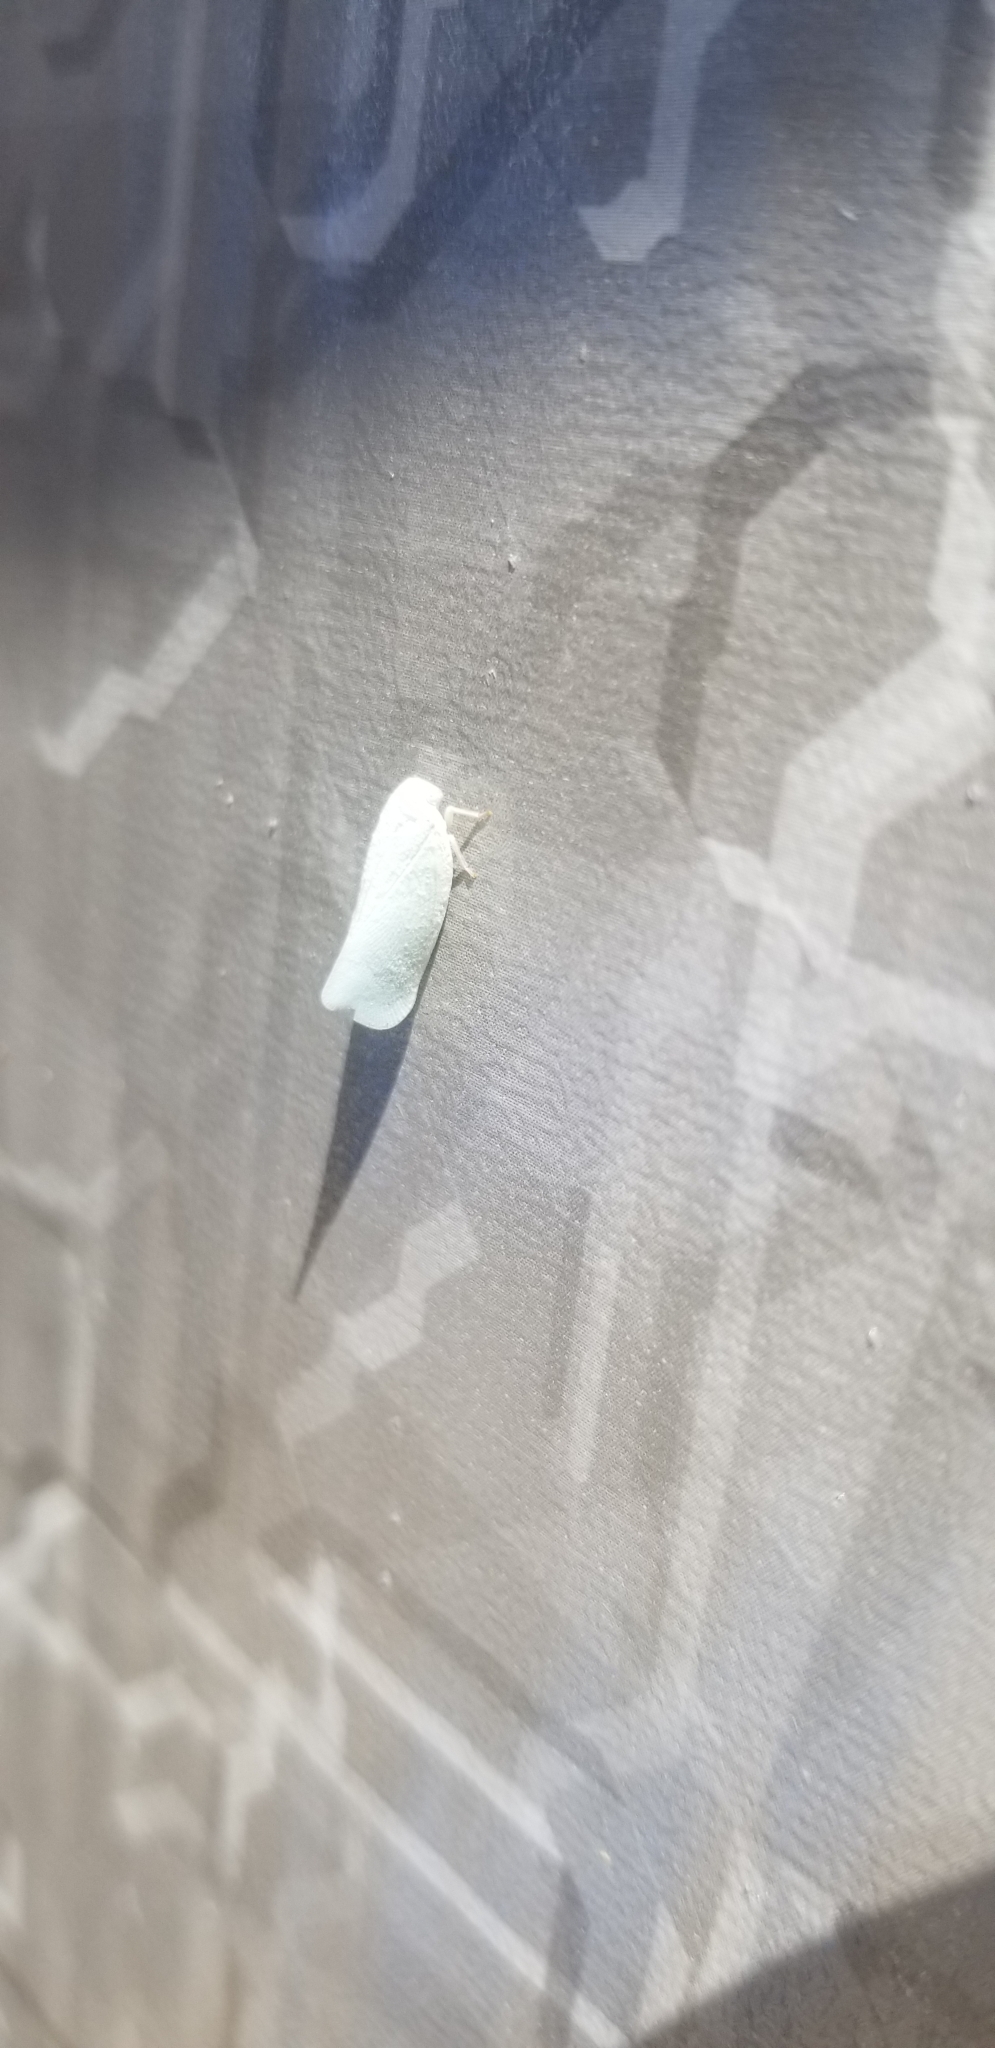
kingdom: Animalia
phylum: Arthropoda
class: Insecta
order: Hemiptera
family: Flatidae
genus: Flatormenis
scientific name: Flatormenis proxima
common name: Northern flatid planthopper
